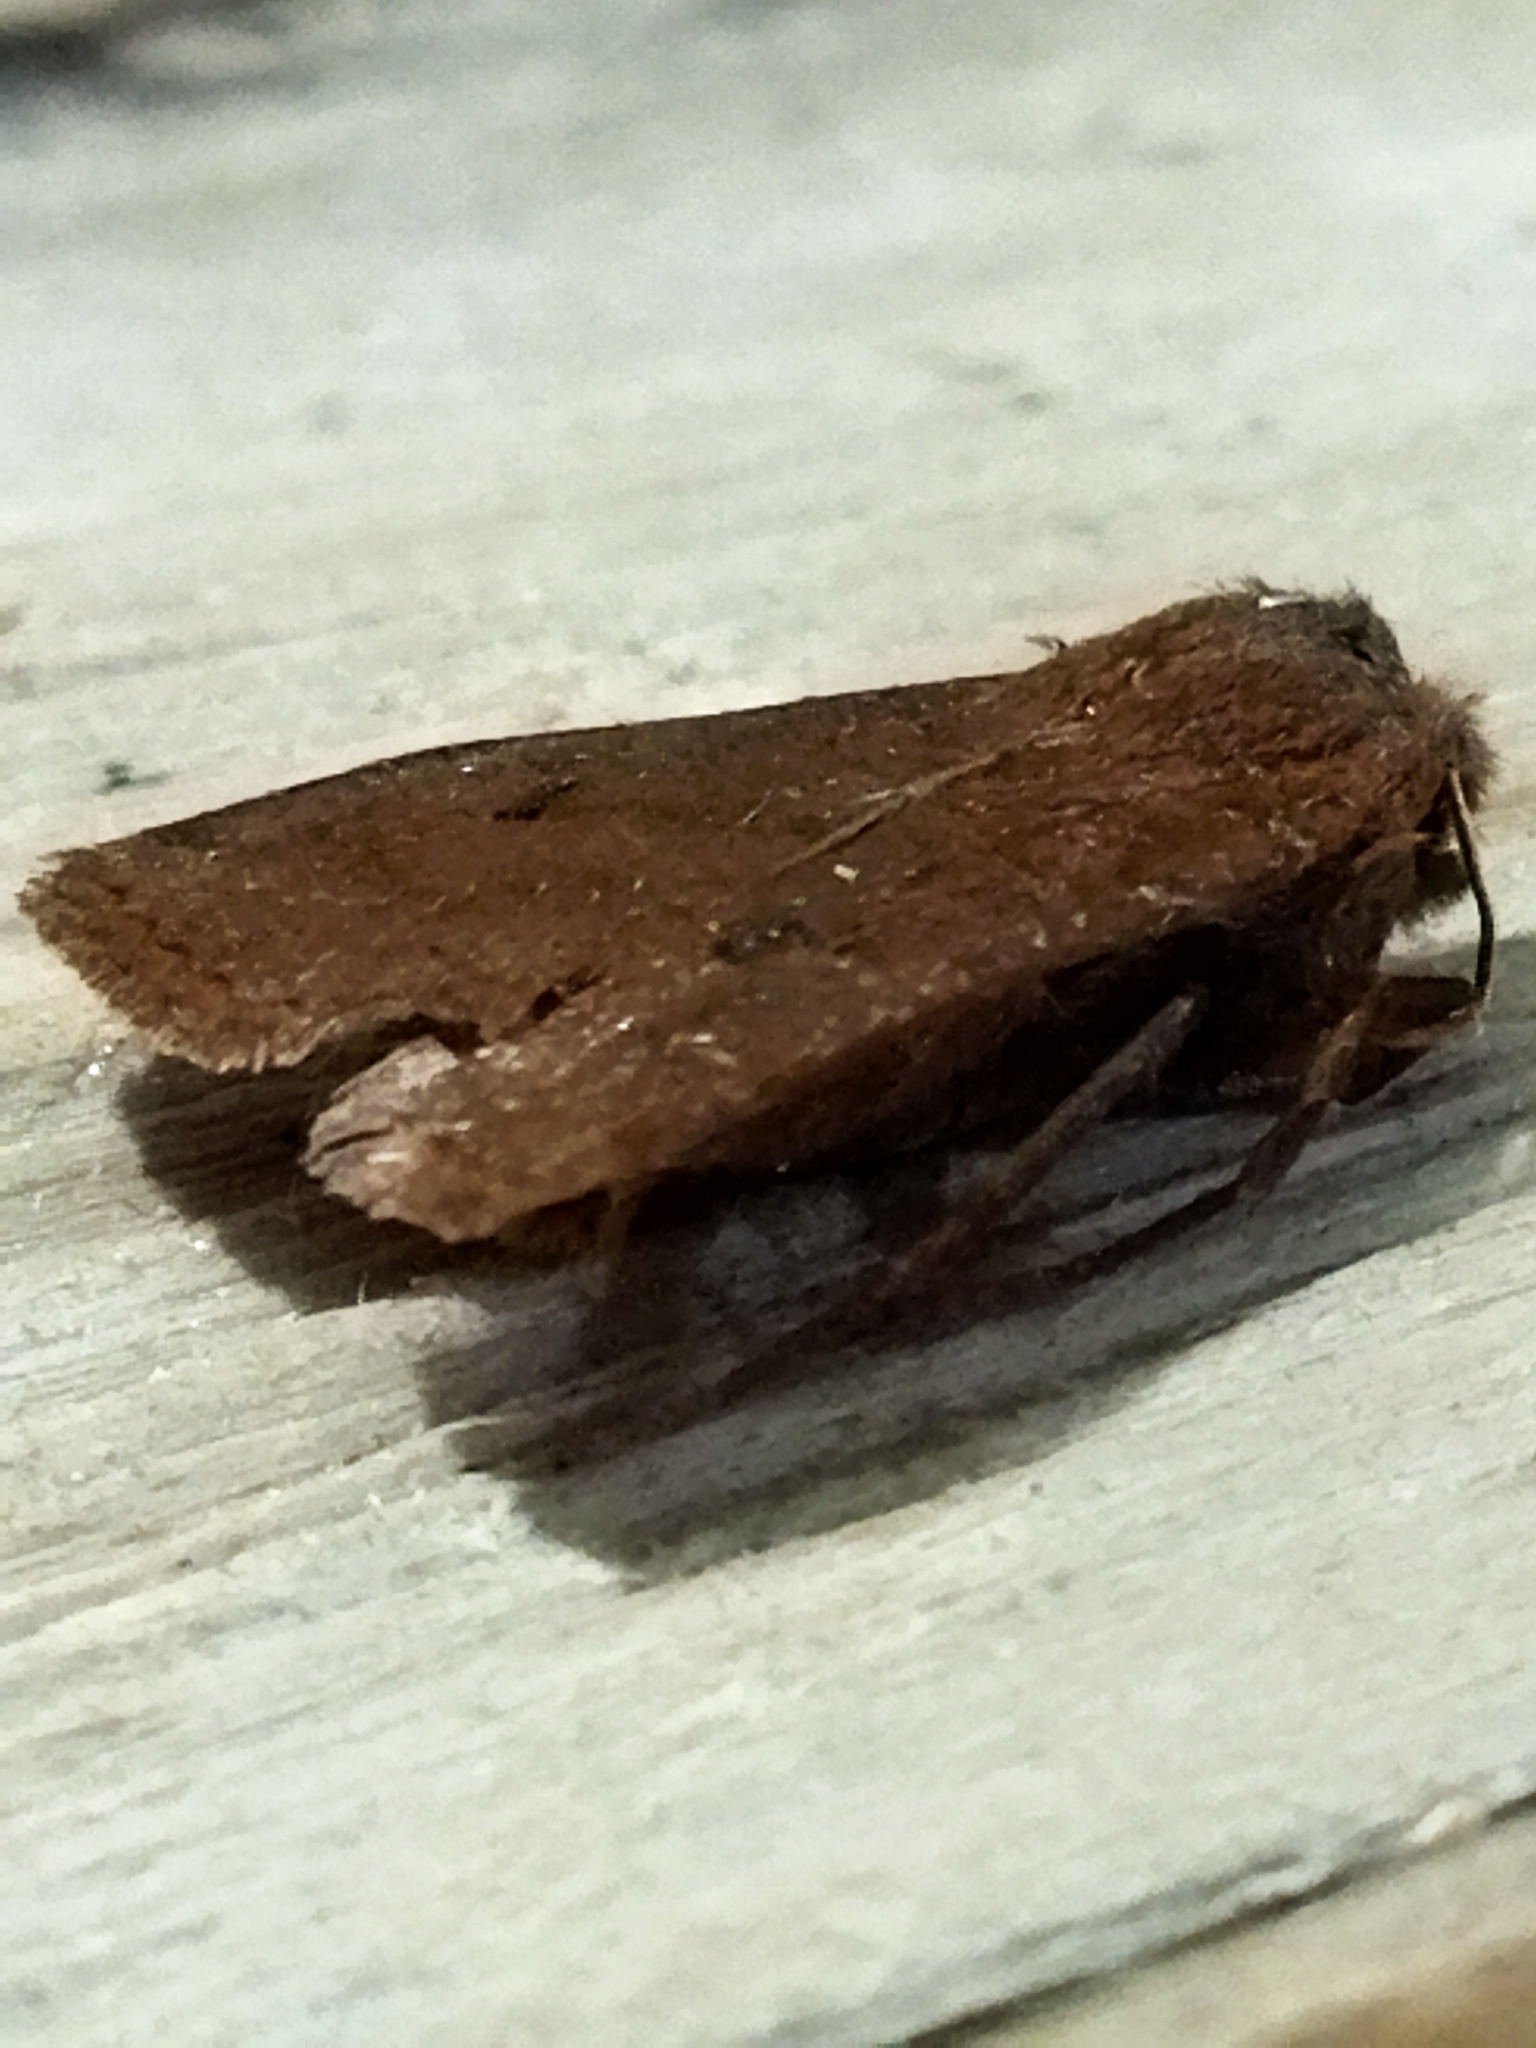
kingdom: Animalia
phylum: Arthropoda
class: Insecta
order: Lepidoptera
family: Noctuidae
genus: Conistra
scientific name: Conistra vaccinii
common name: Chestnut
